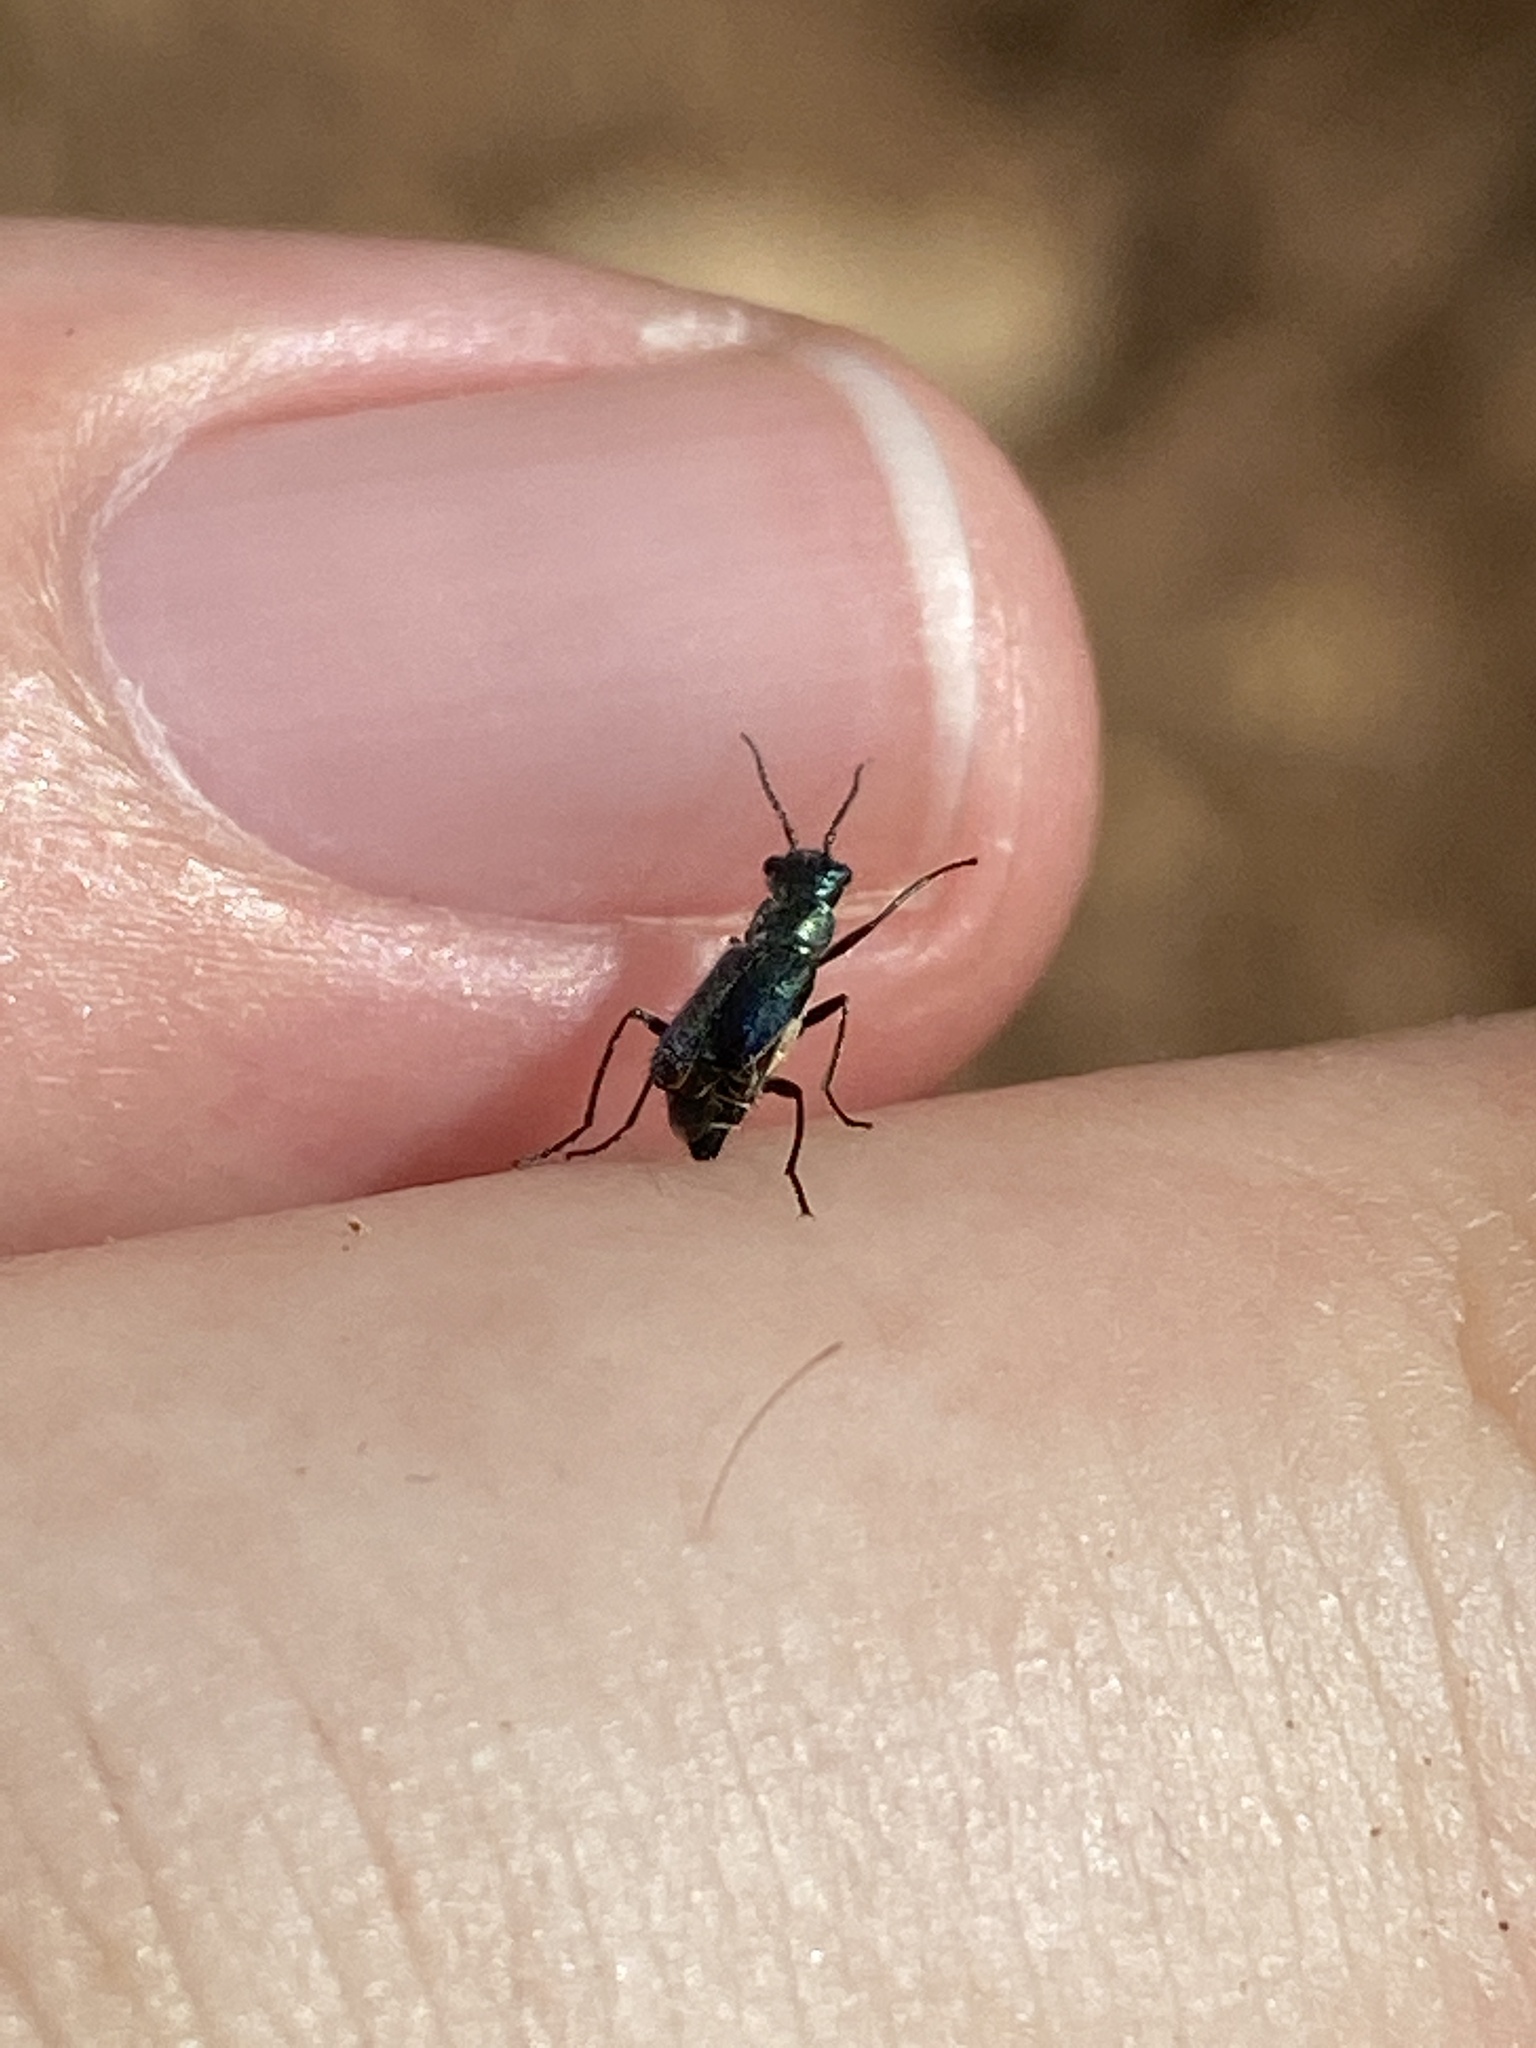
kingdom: Animalia
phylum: Arthropoda
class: Insecta
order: Coleoptera
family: Malachiidae
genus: Cordylepherus
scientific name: Cordylepherus viridis
